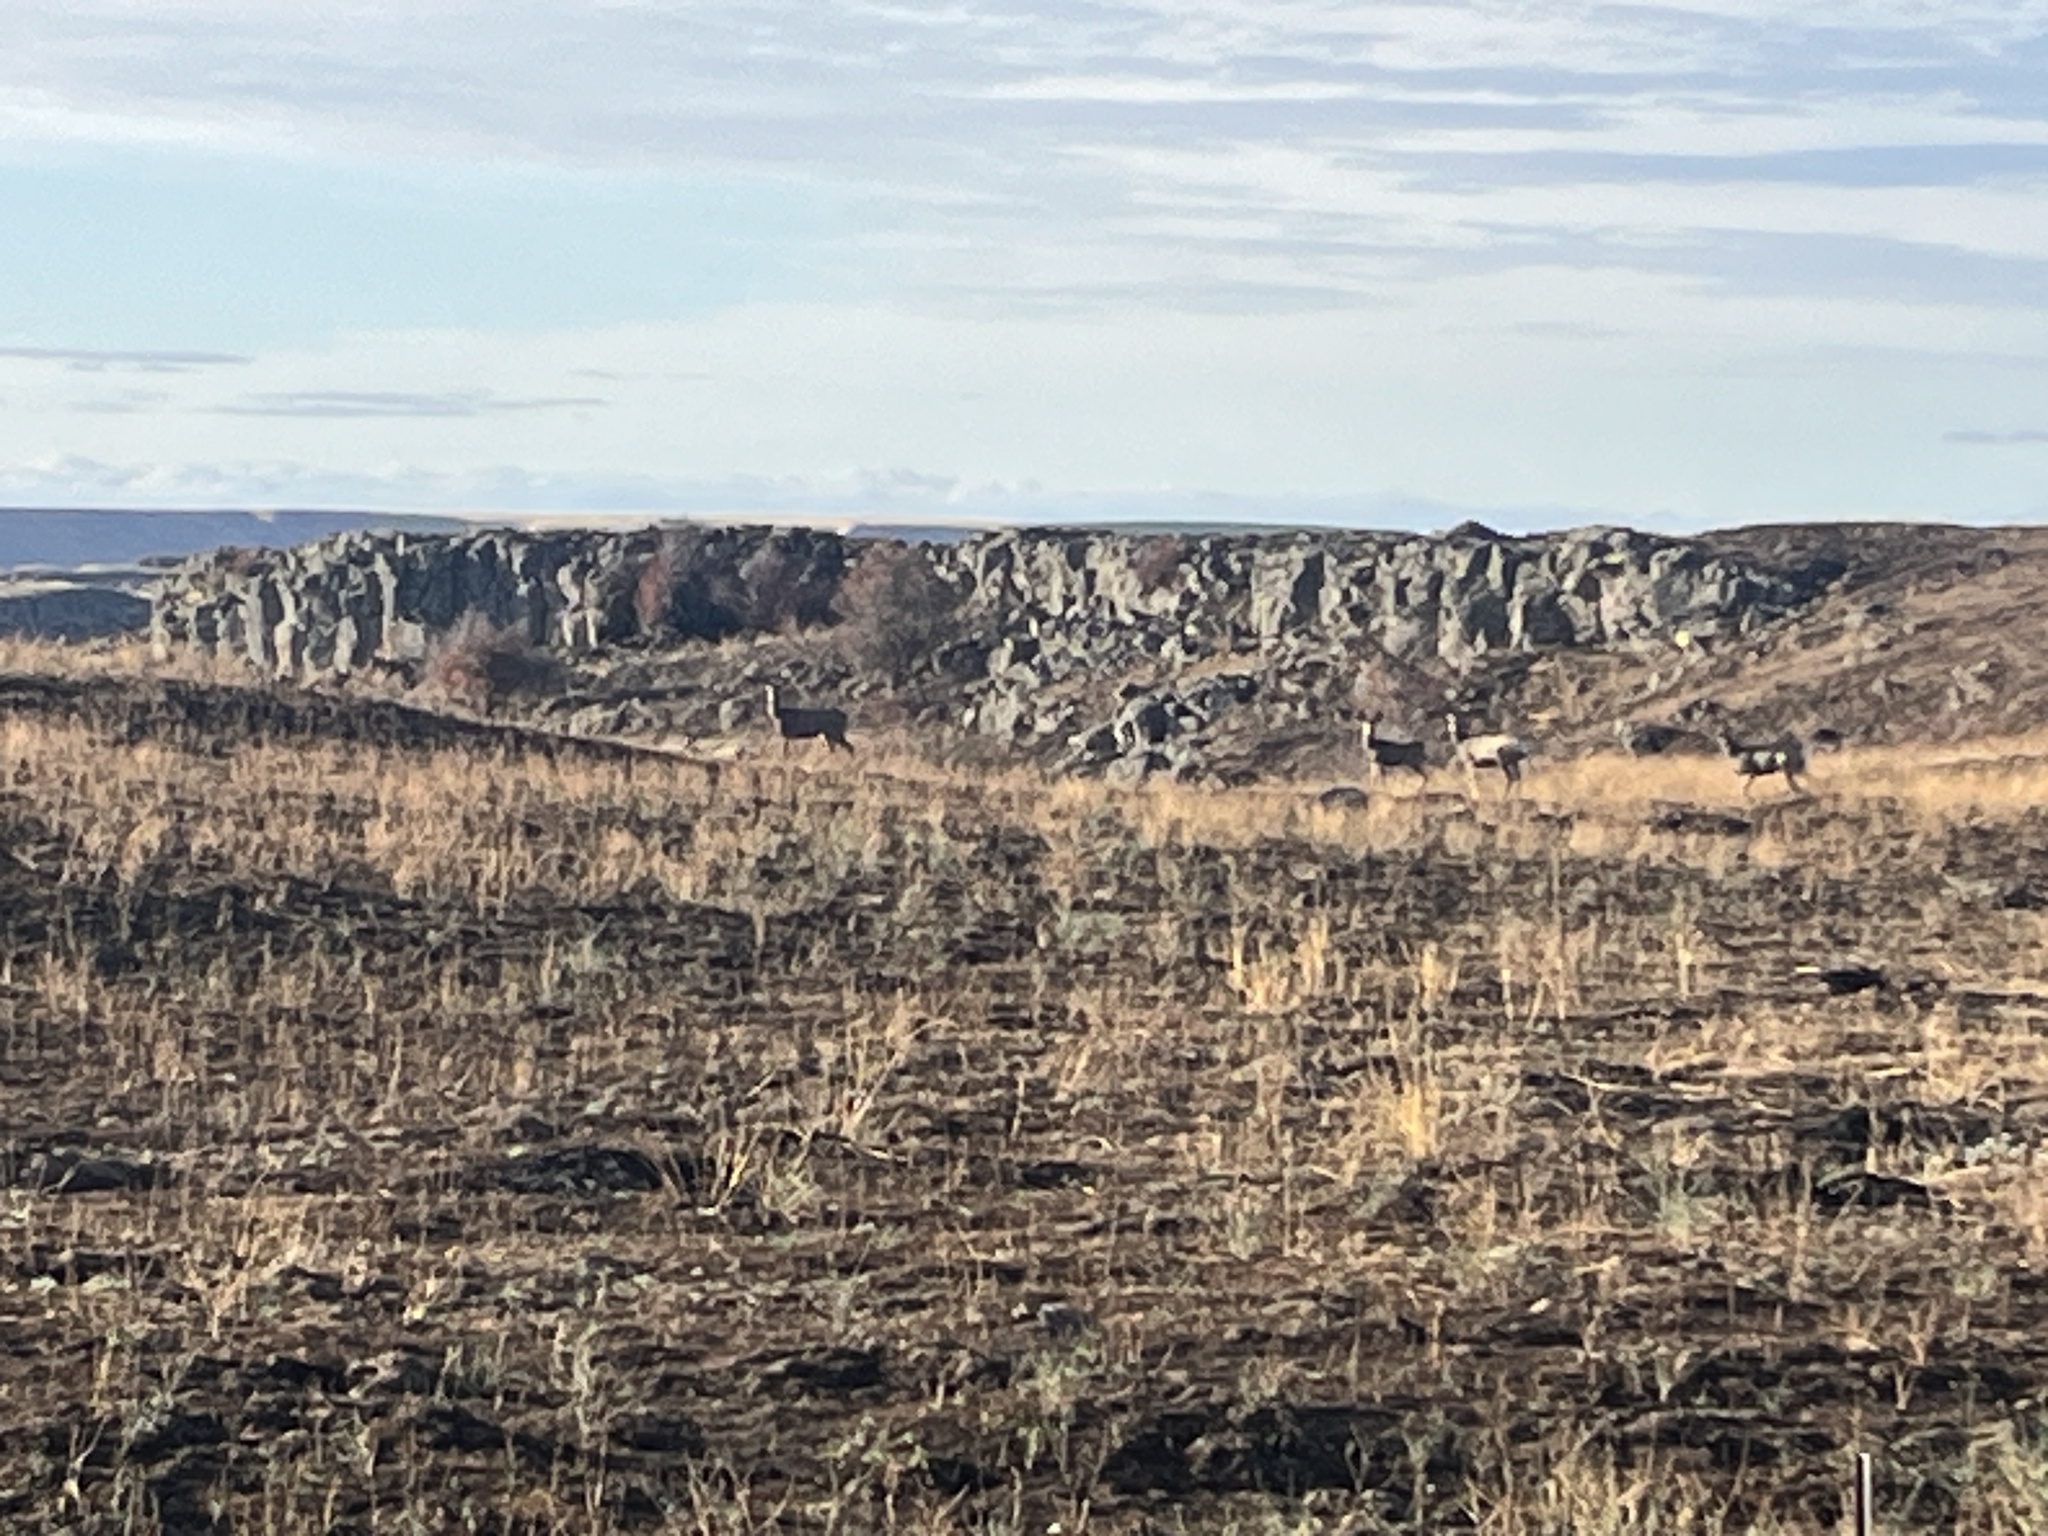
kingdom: Animalia
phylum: Chordata
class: Mammalia
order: Artiodactyla
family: Cervidae
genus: Odocoileus
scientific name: Odocoileus hemionus
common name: Mule deer
